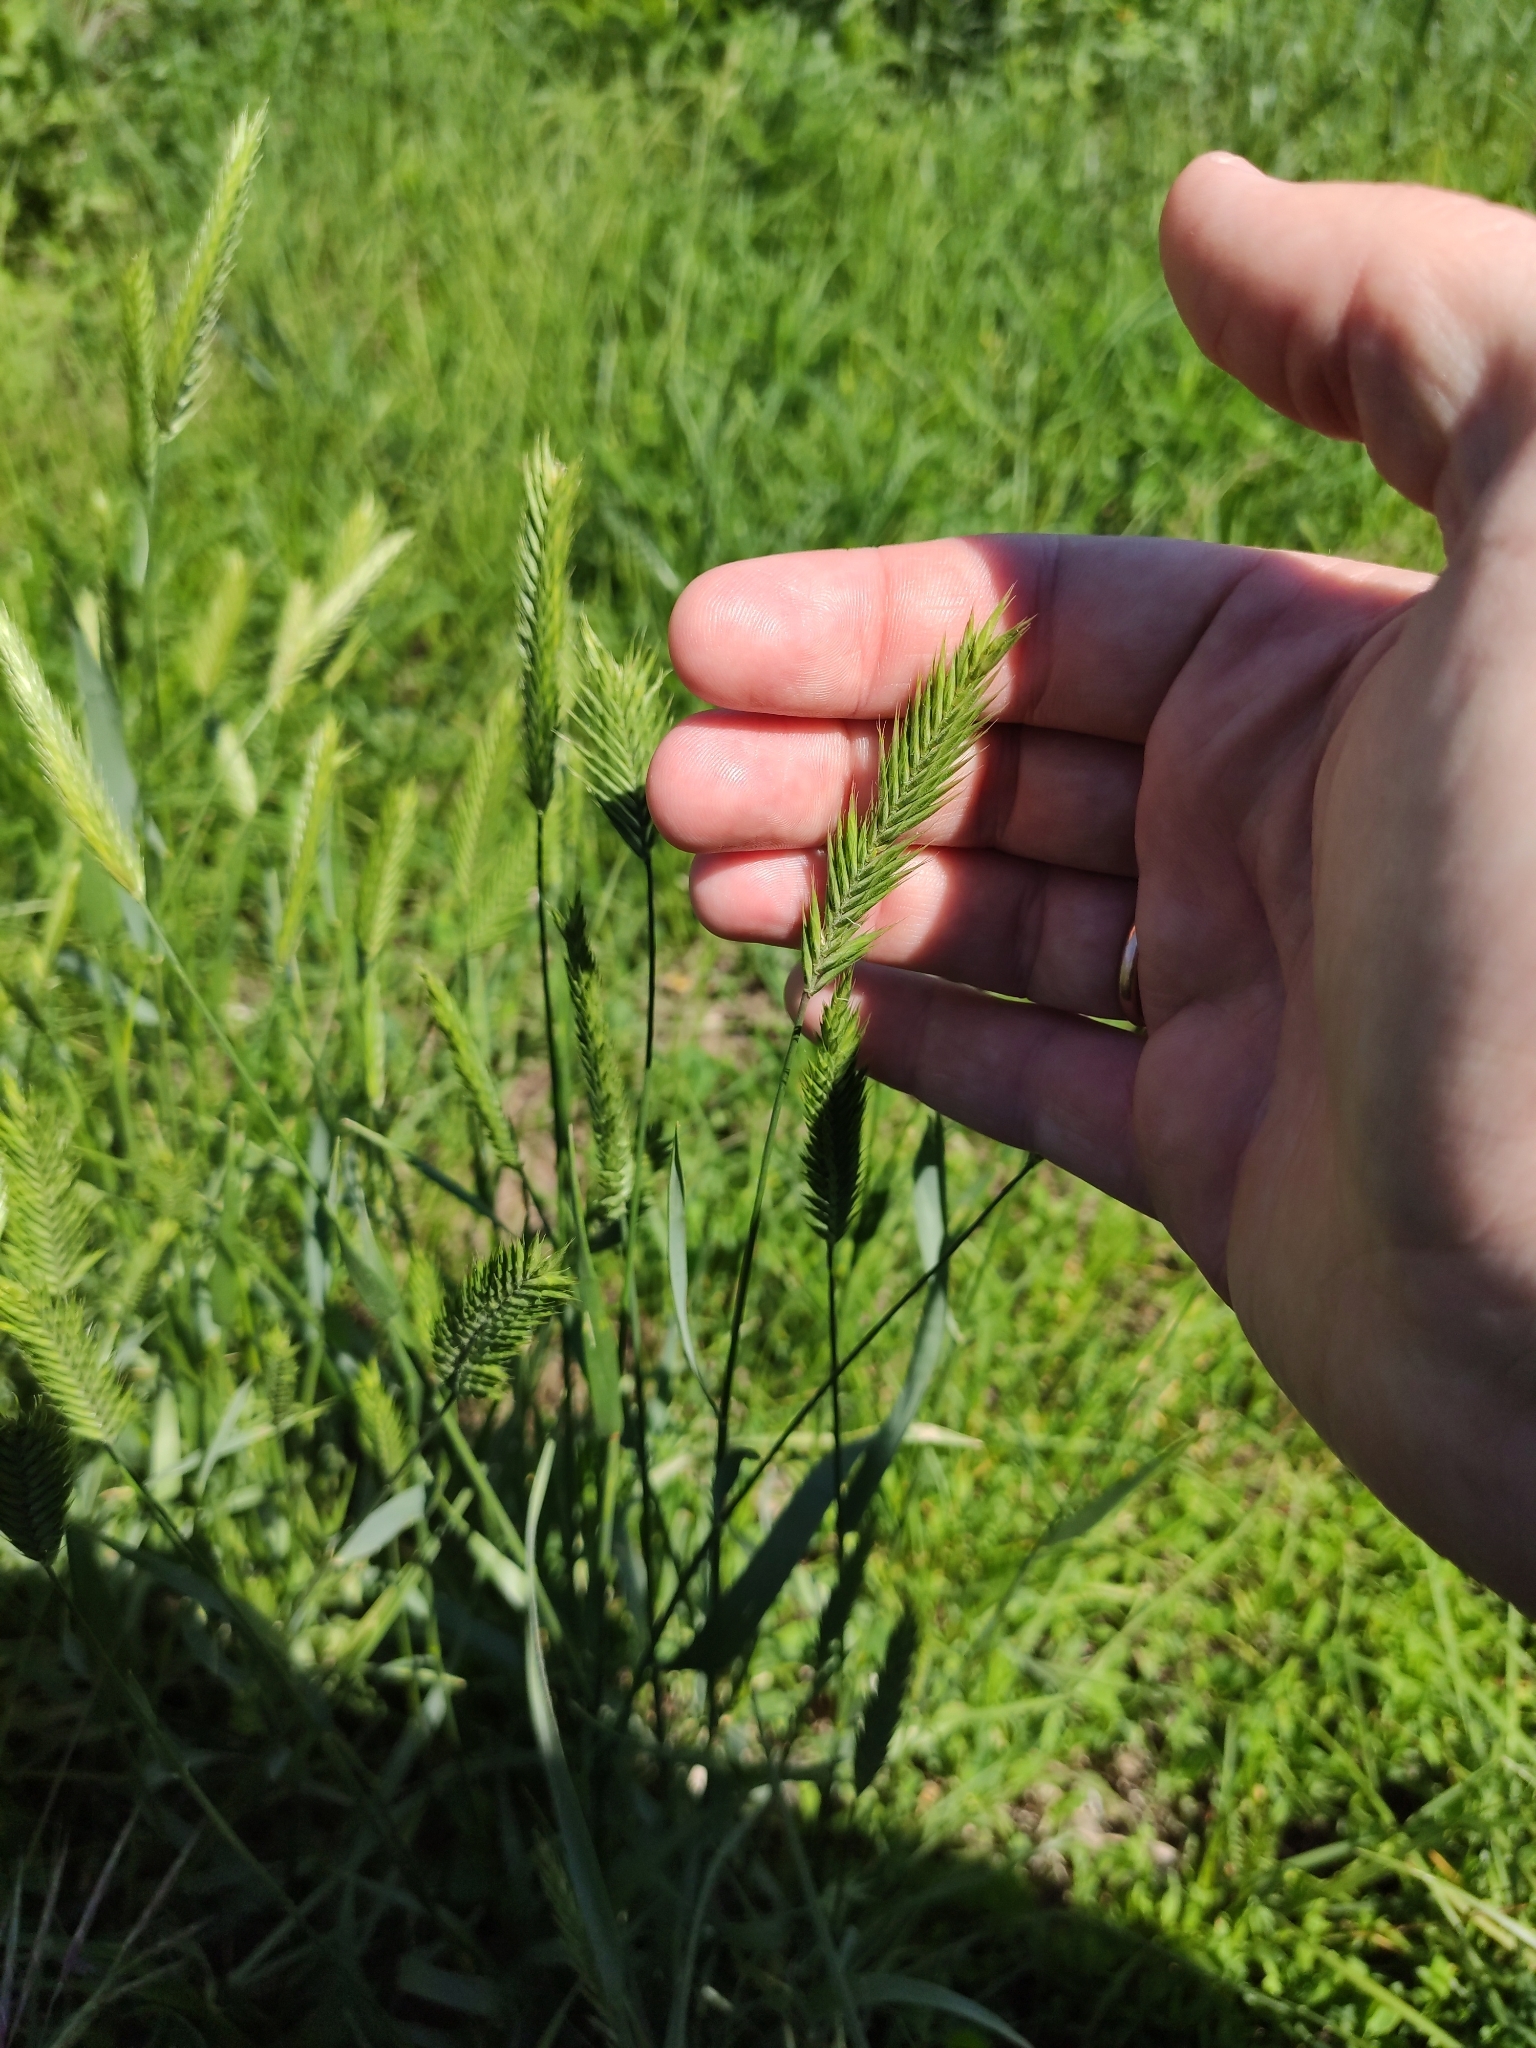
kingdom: Plantae
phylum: Tracheophyta
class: Liliopsida
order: Poales
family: Poaceae
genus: Agropyron
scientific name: Agropyron cristatum
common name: Crested wheatgrass
